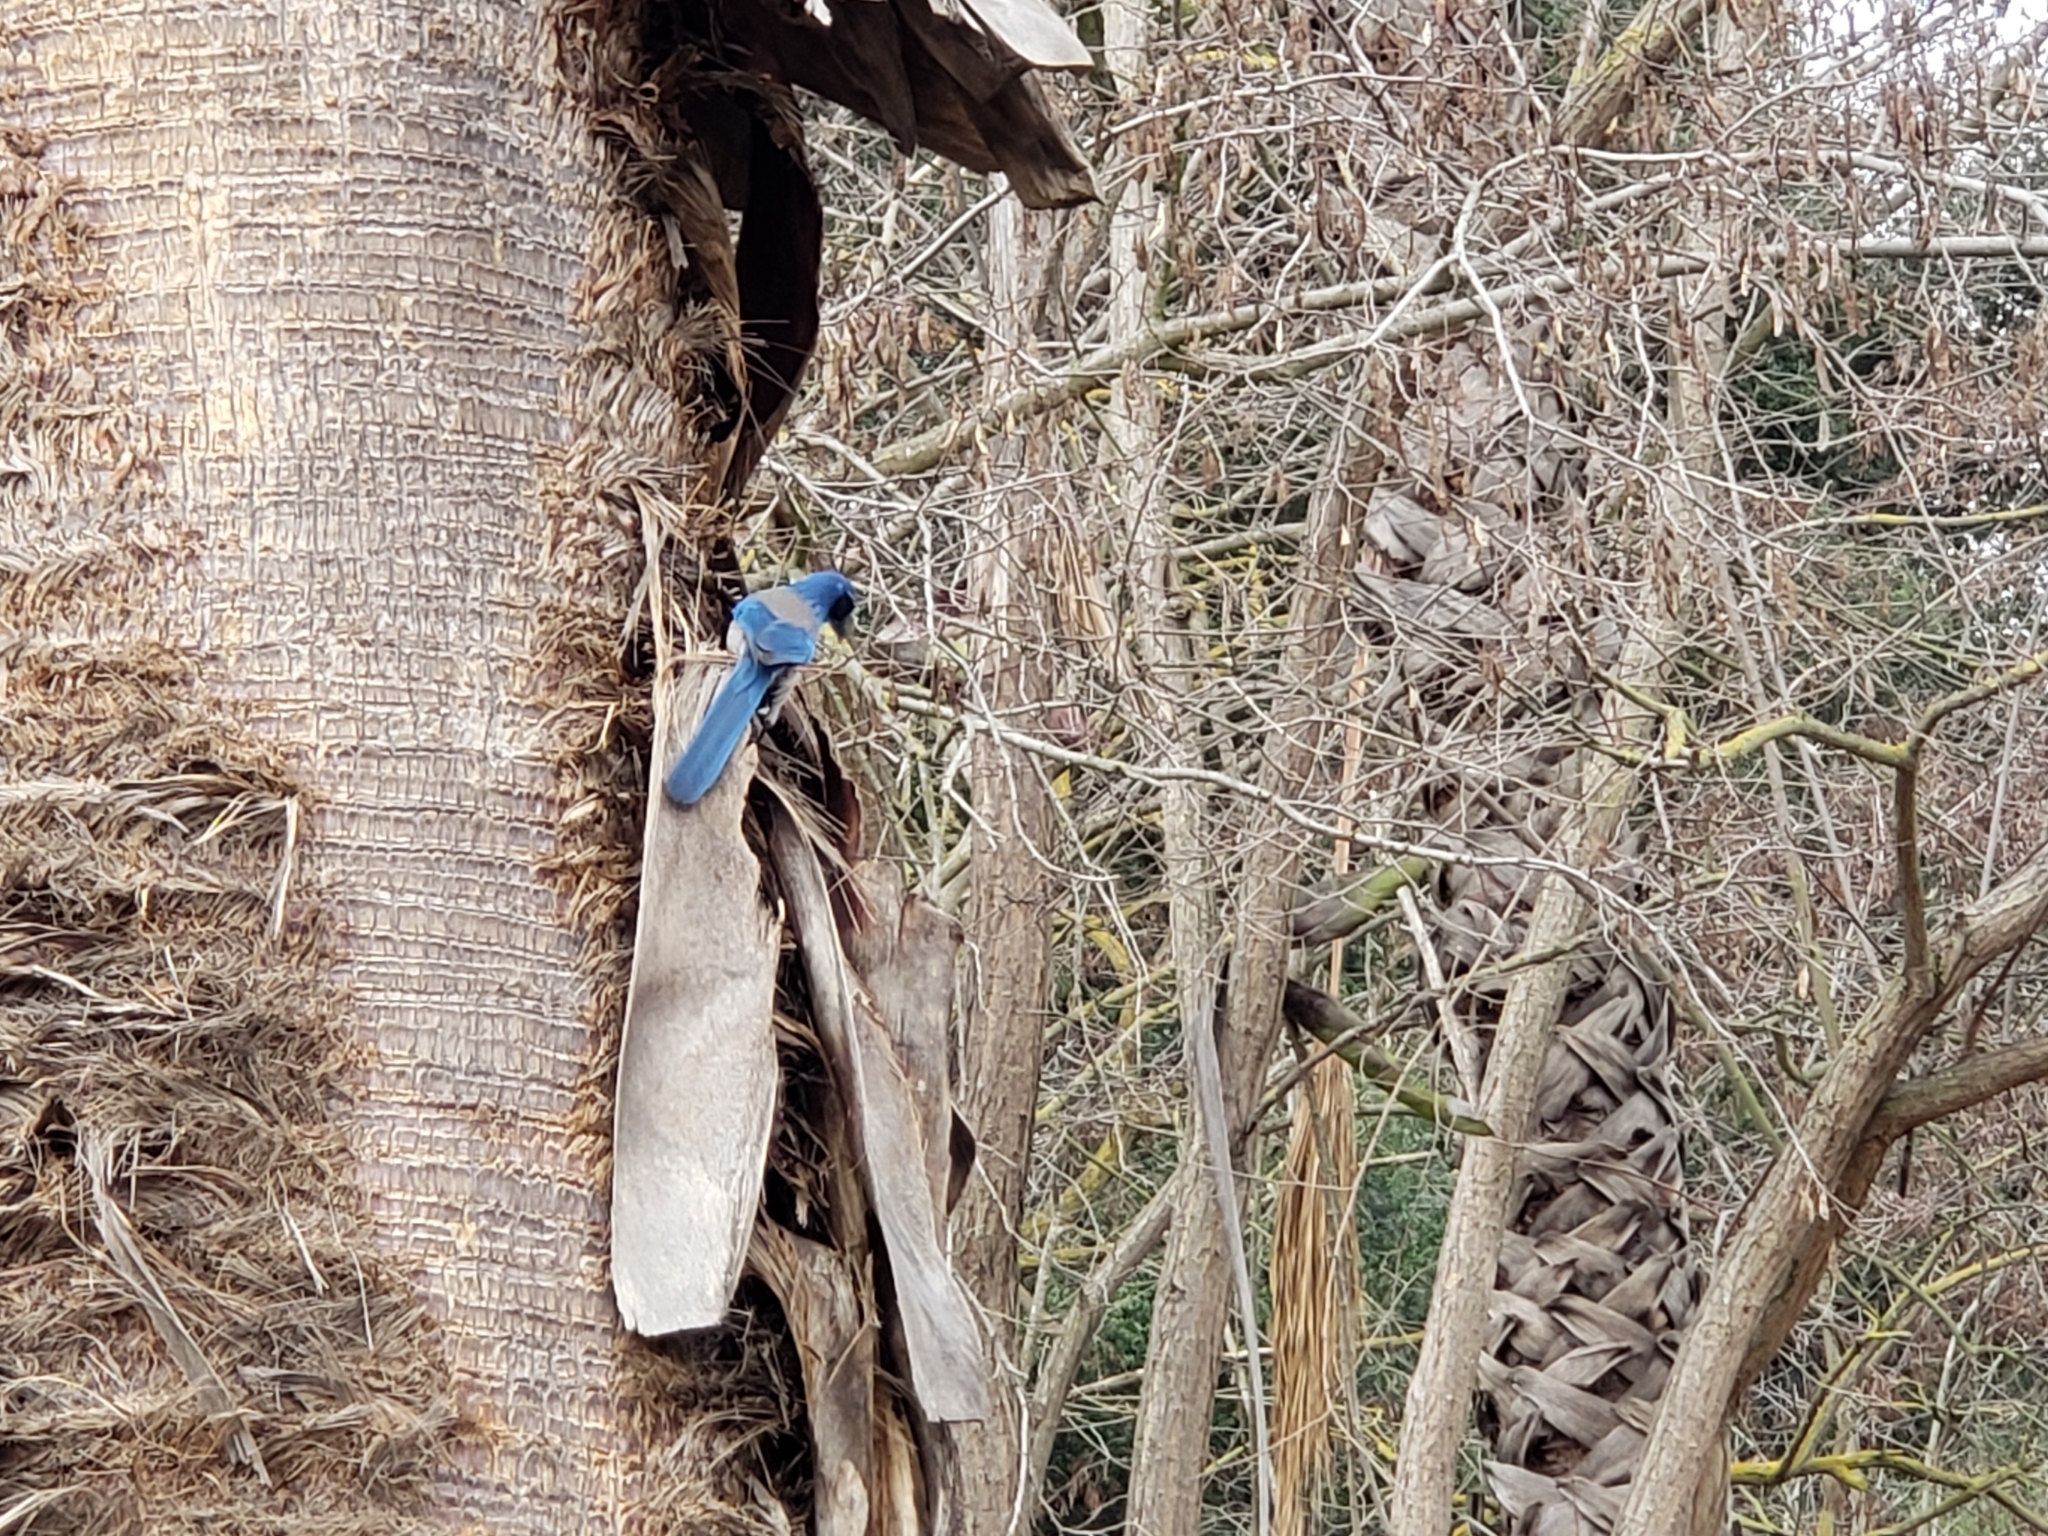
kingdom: Animalia
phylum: Chordata
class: Aves
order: Passeriformes
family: Corvidae
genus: Aphelocoma
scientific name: Aphelocoma californica
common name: California scrub-jay
